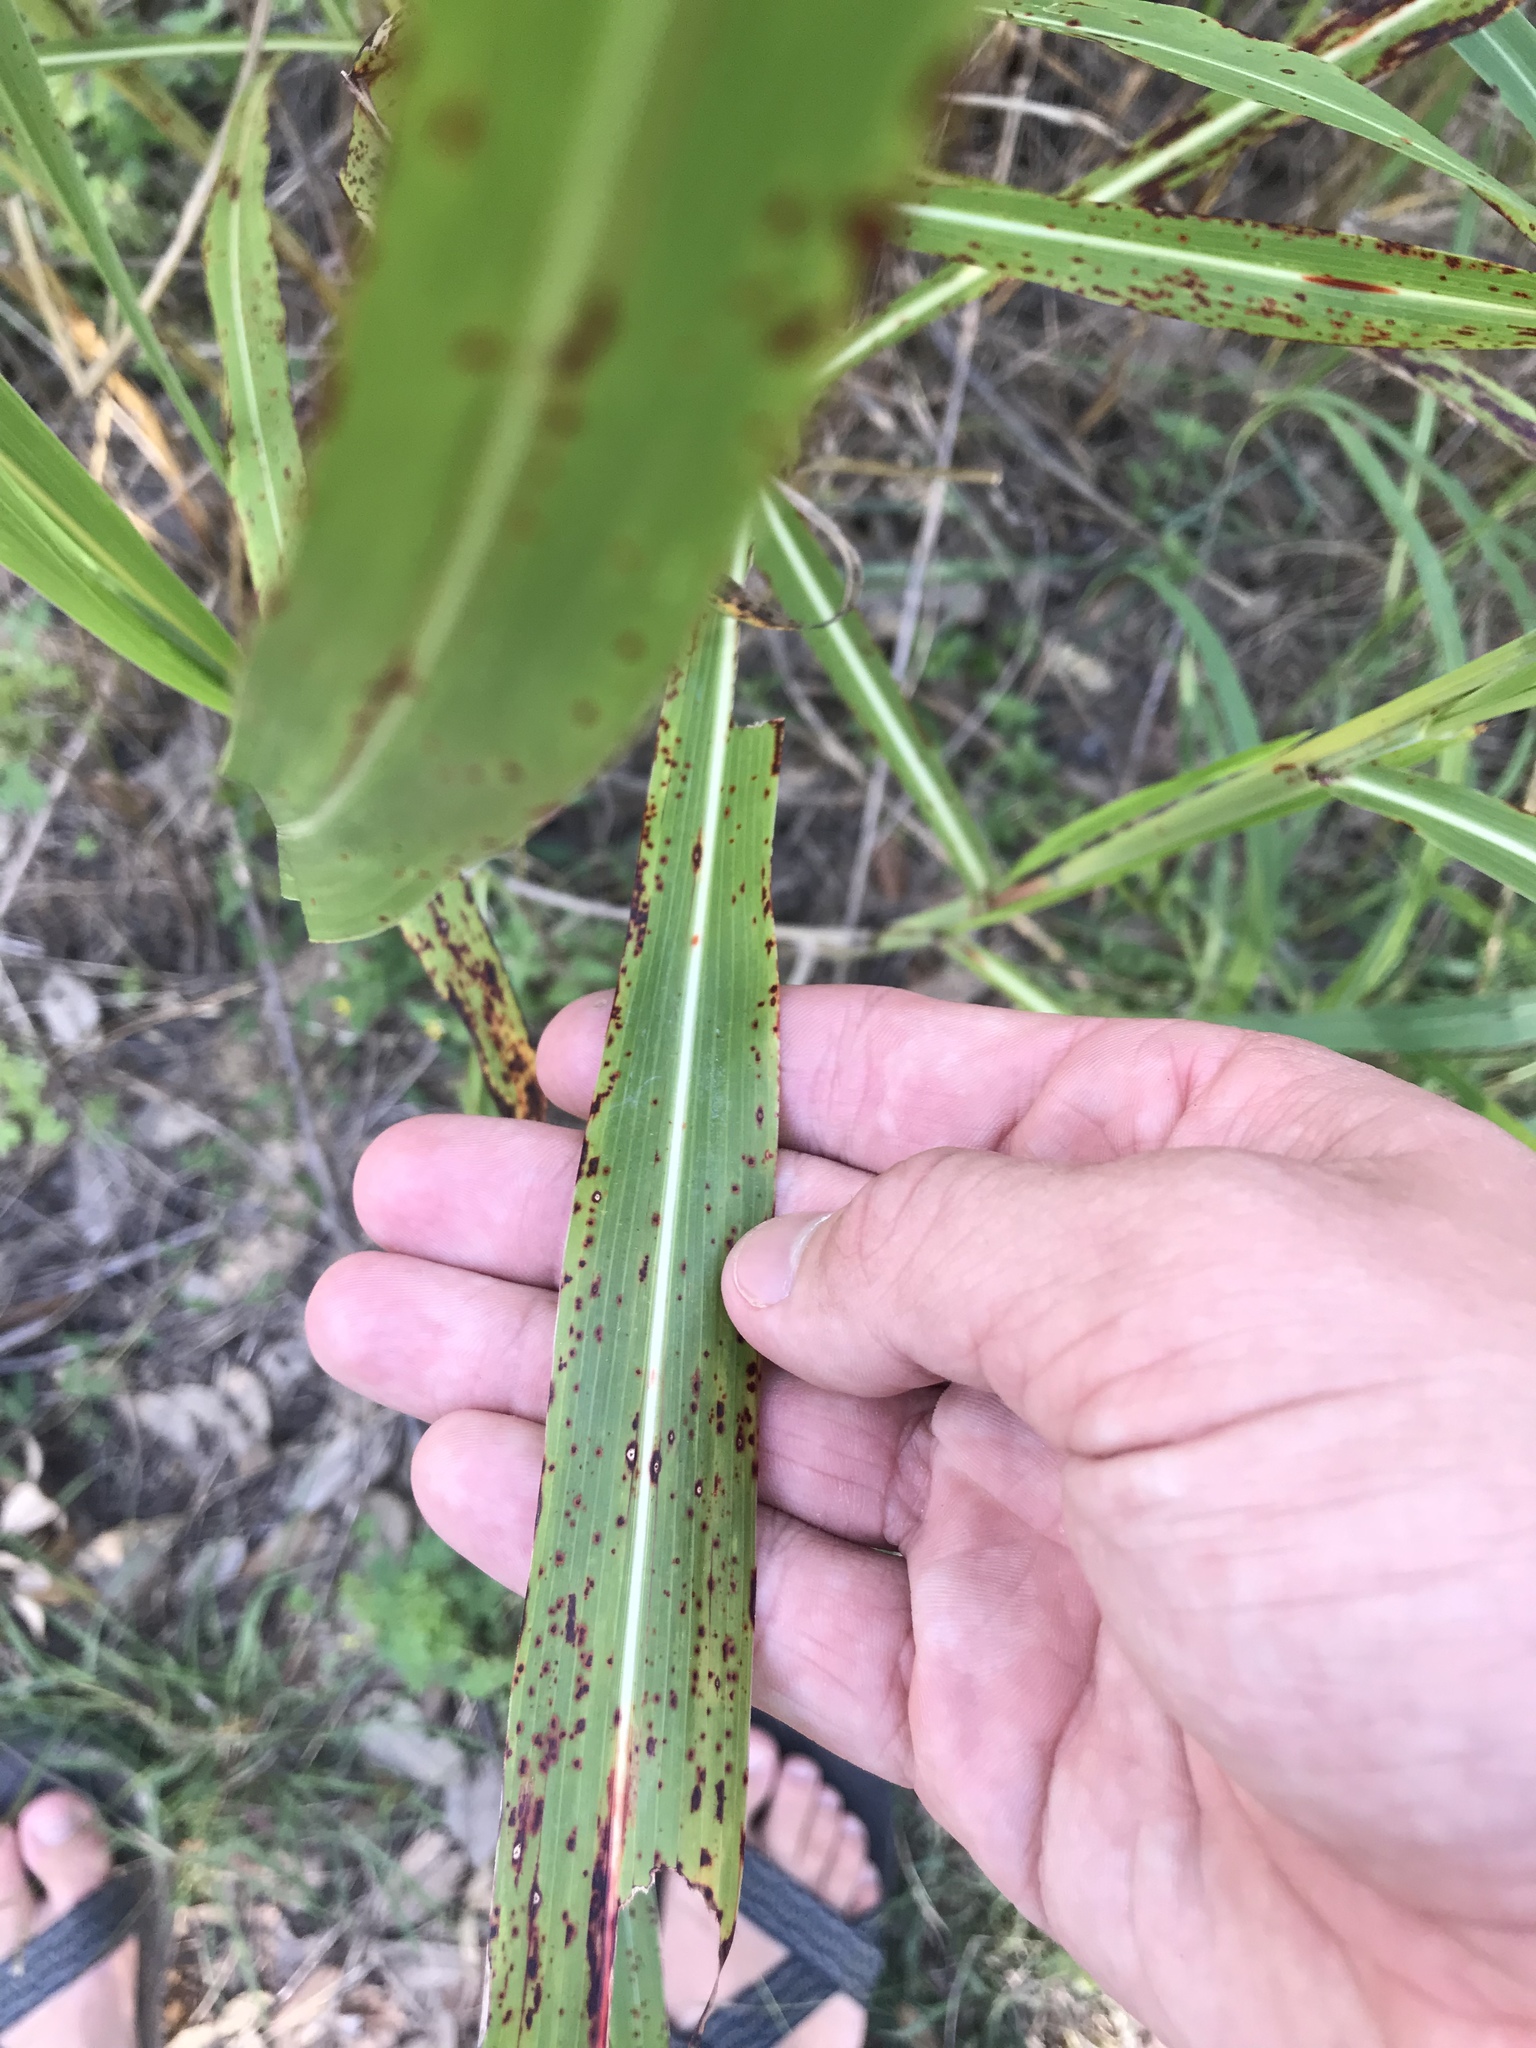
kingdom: Plantae
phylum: Tracheophyta
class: Liliopsida
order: Poales
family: Poaceae
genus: Sorghum
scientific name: Sorghum halepense
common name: Johnson-grass
